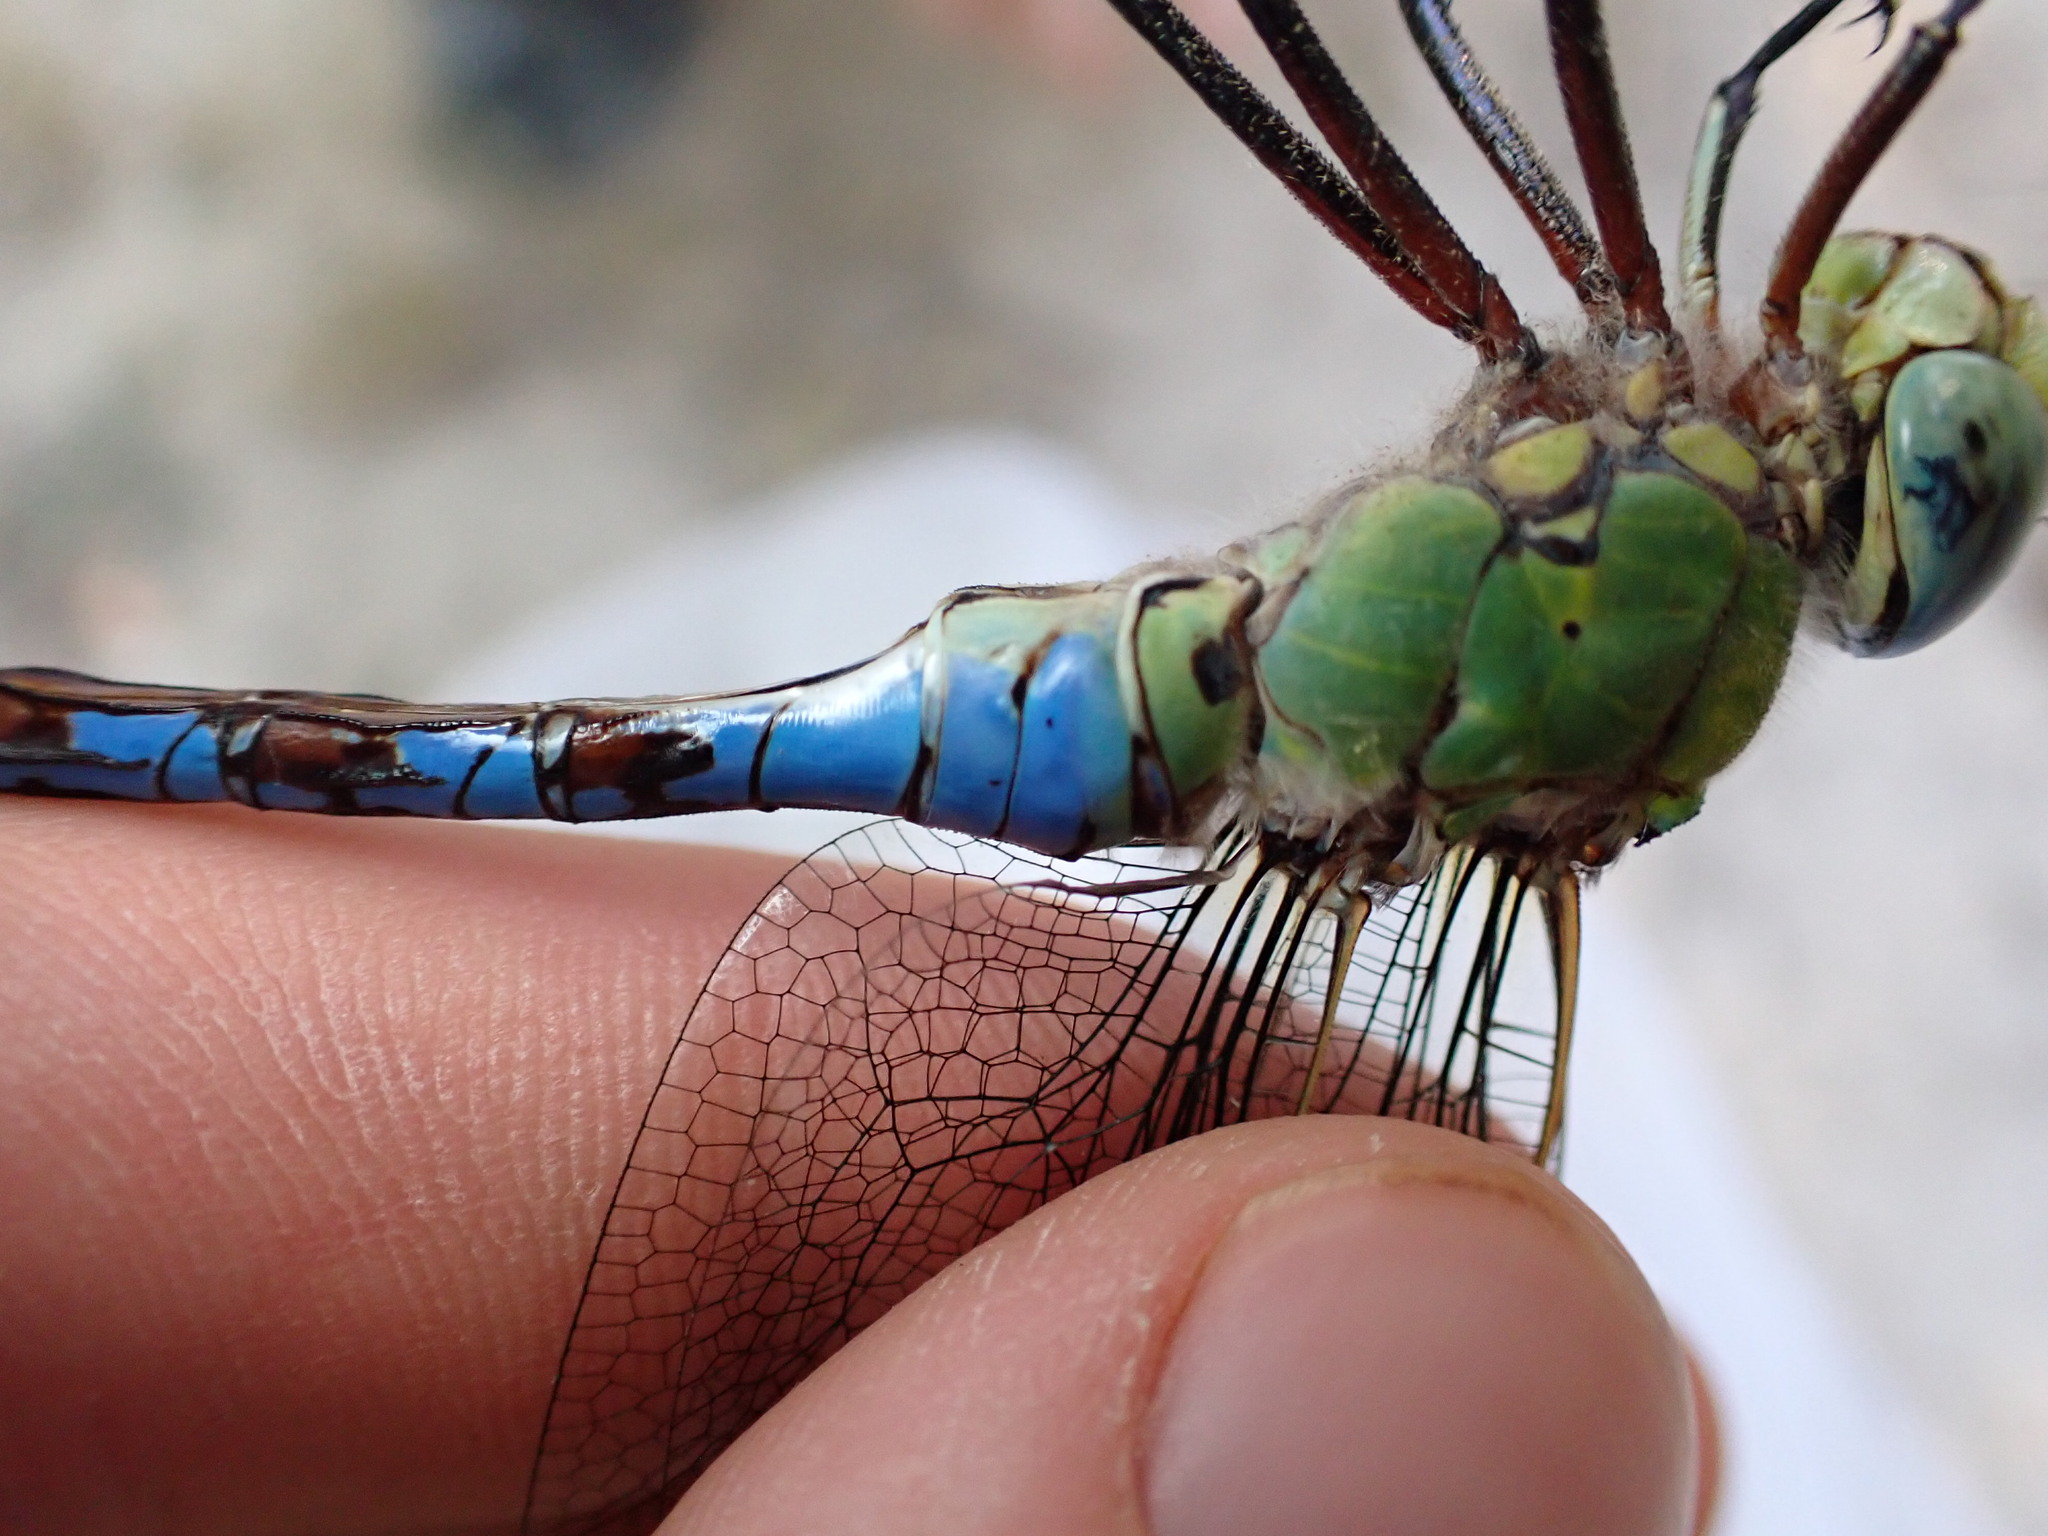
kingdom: Animalia
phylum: Arthropoda
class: Insecta
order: Odonata
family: Aeshnidae
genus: Anax
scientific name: Anax imperator
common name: Emperor dragonfly
